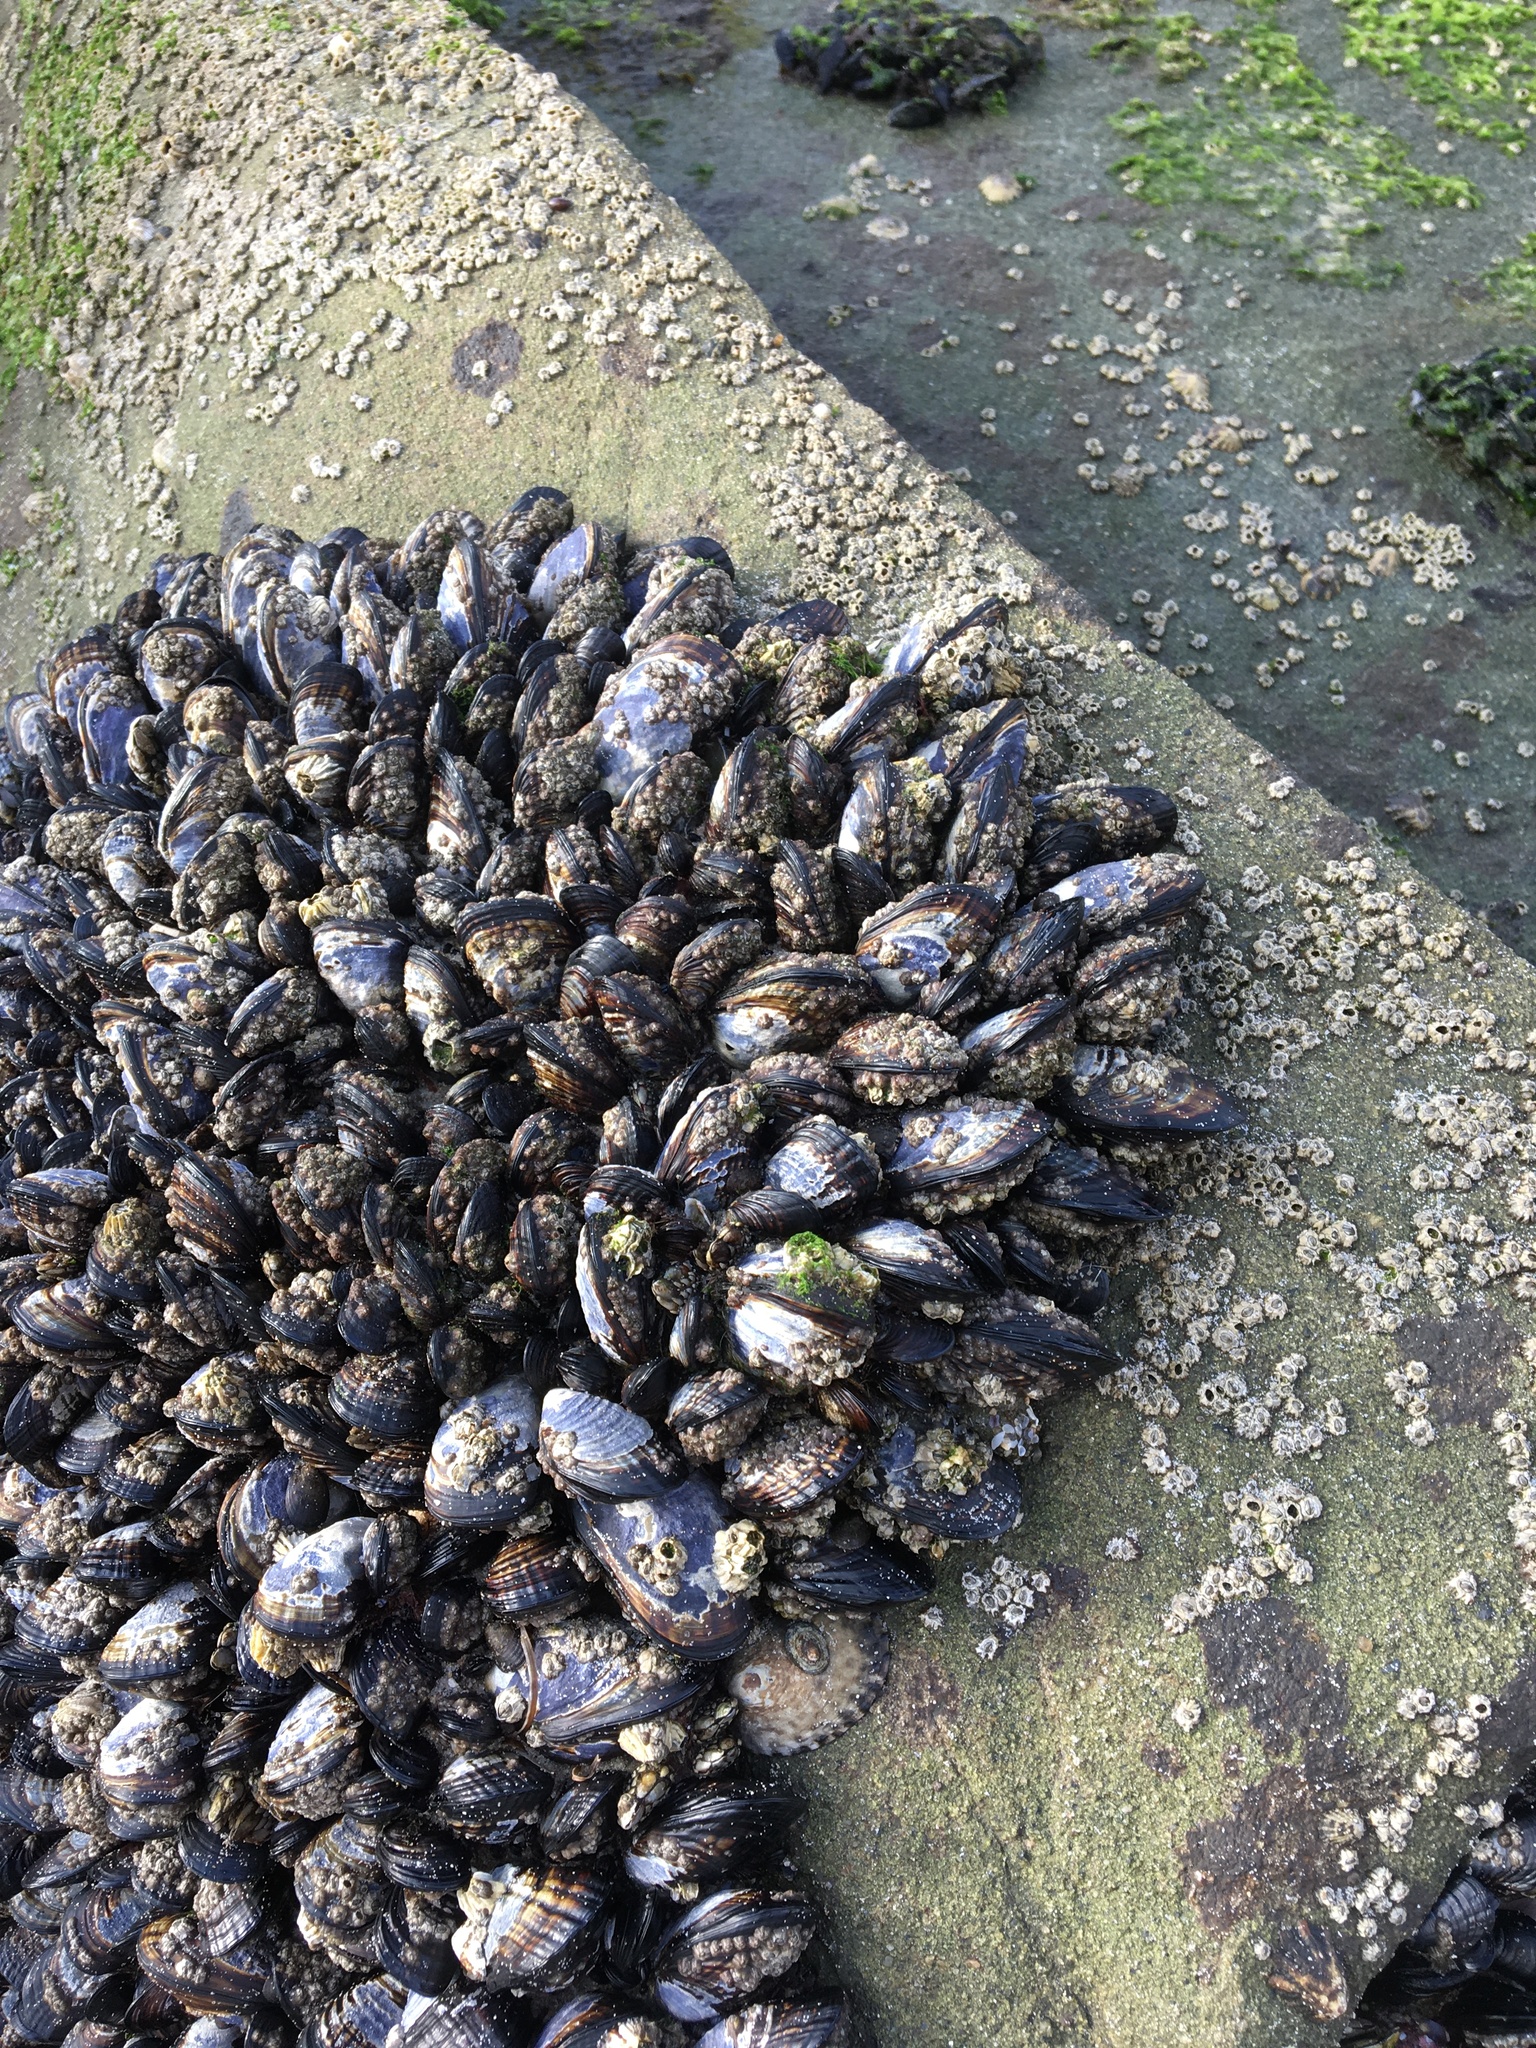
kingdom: Animalia
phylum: Mollusca
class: Bivalvia
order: Mytilida
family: Mytilidae
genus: Mytilus
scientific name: Mytilus californianus
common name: California mussel
